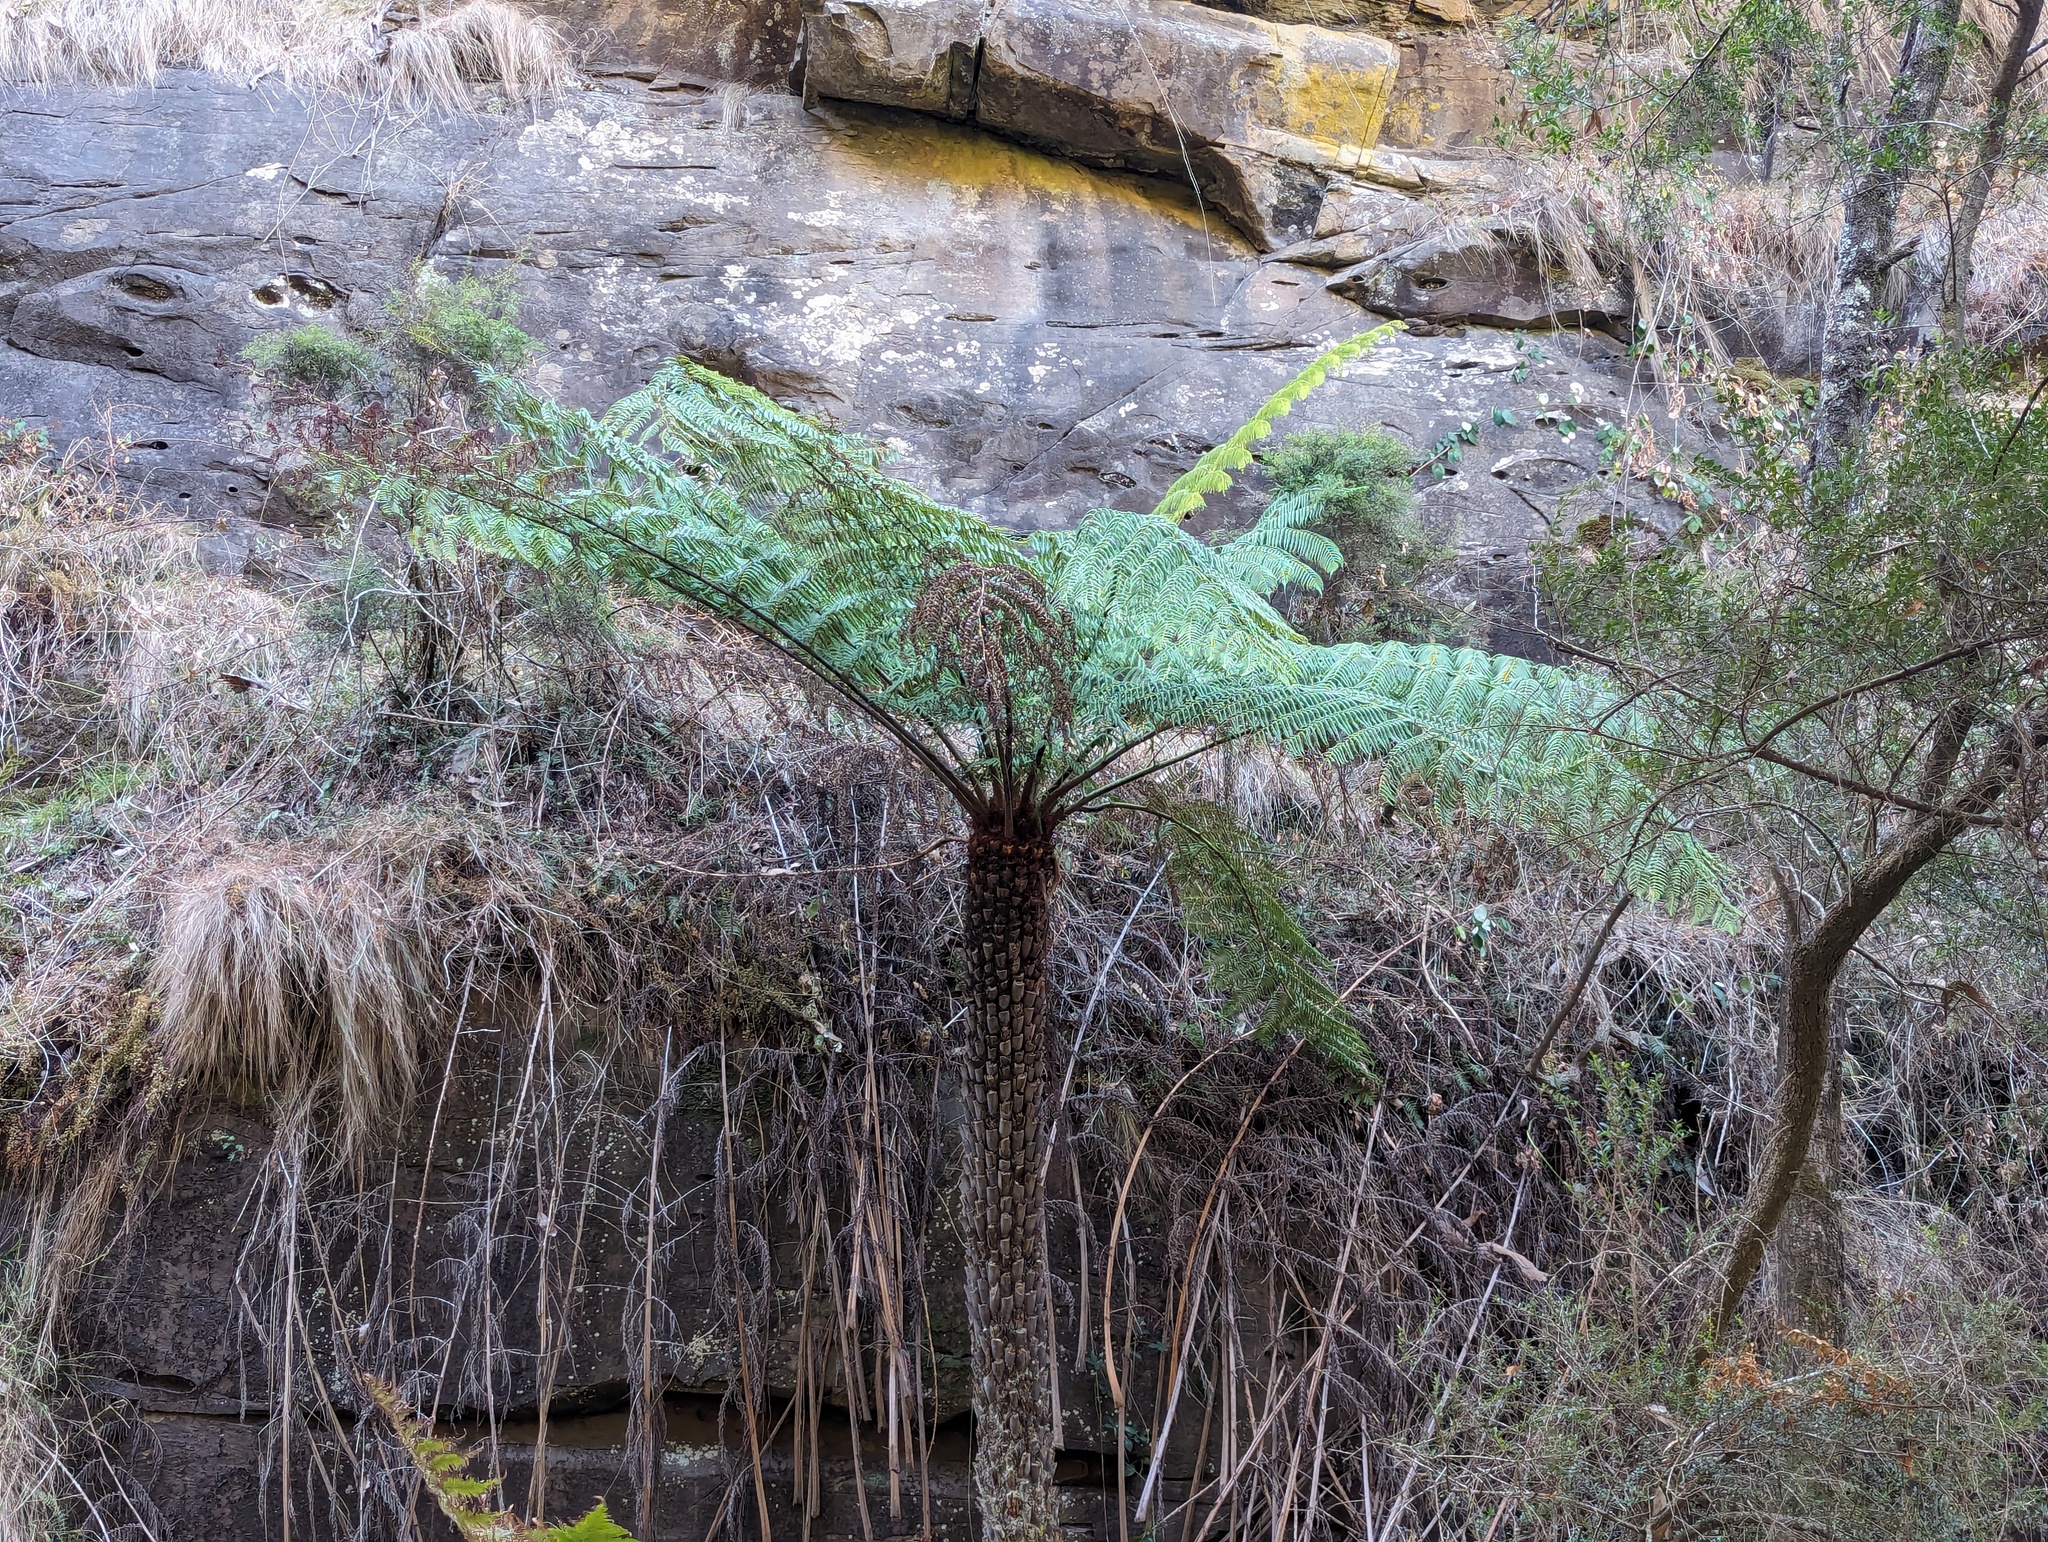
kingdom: Plantae
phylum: Tracheophyta
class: Polypodiopsida
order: Cyatheales
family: Cyatheaceae
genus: Alsophila
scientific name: Alsophila australis
